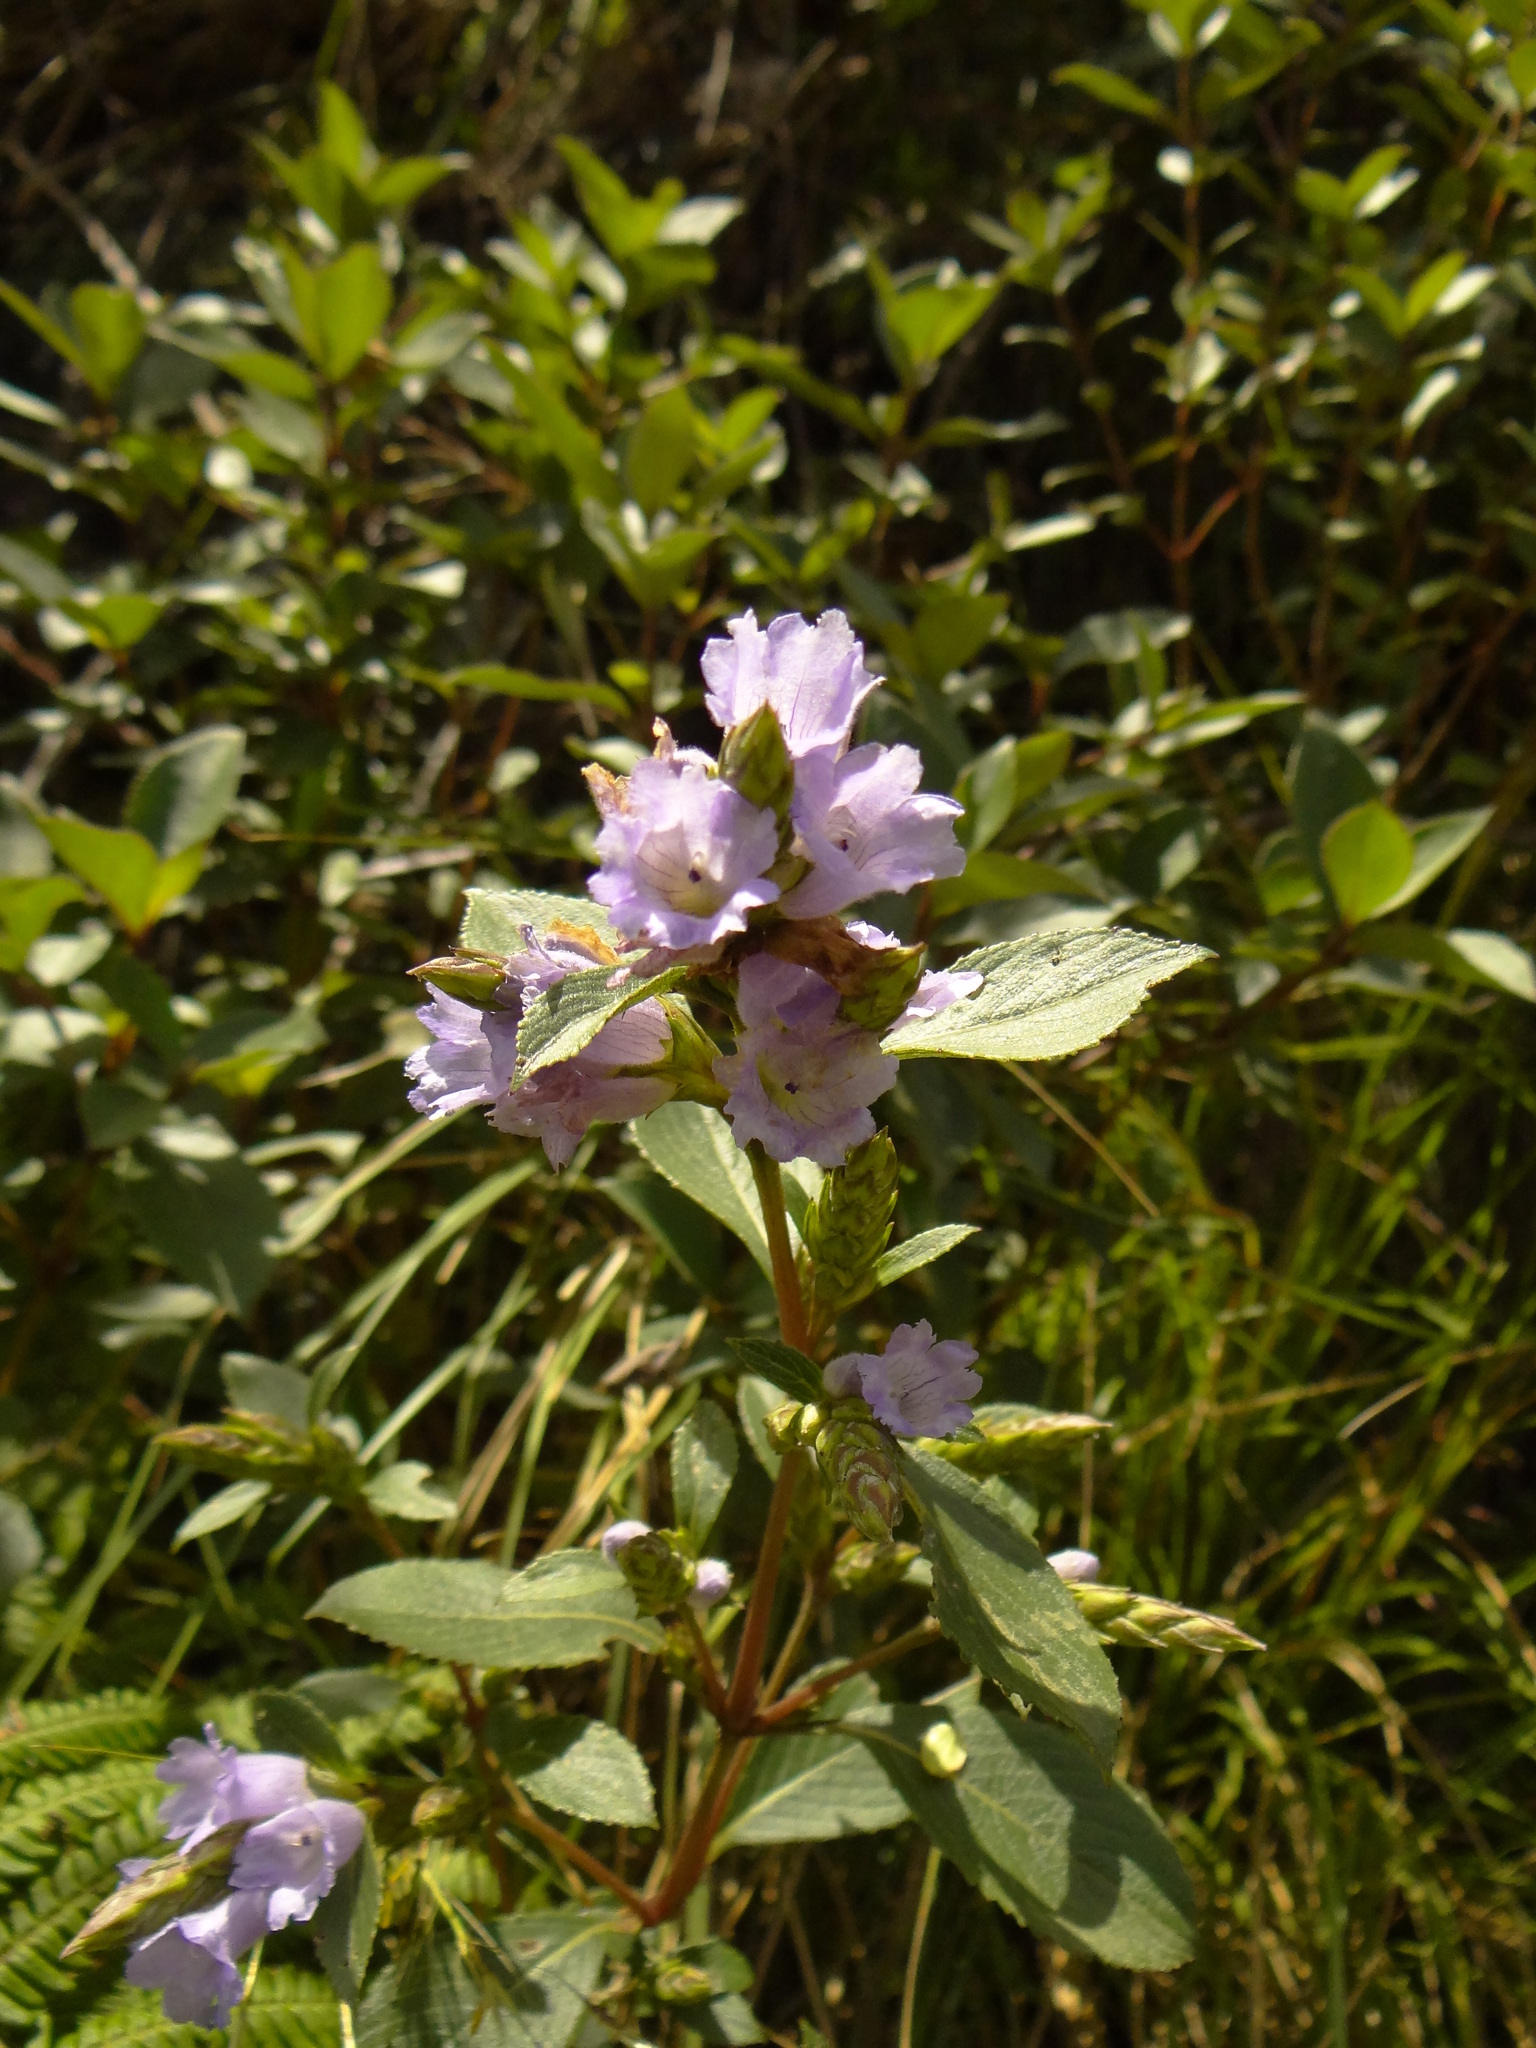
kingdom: Plantae
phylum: Tracheophyta
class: Magnoliopsida
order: Lamiales
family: Acanthaceae
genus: Strobilanthes
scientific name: Strobilanthes kunthiana
